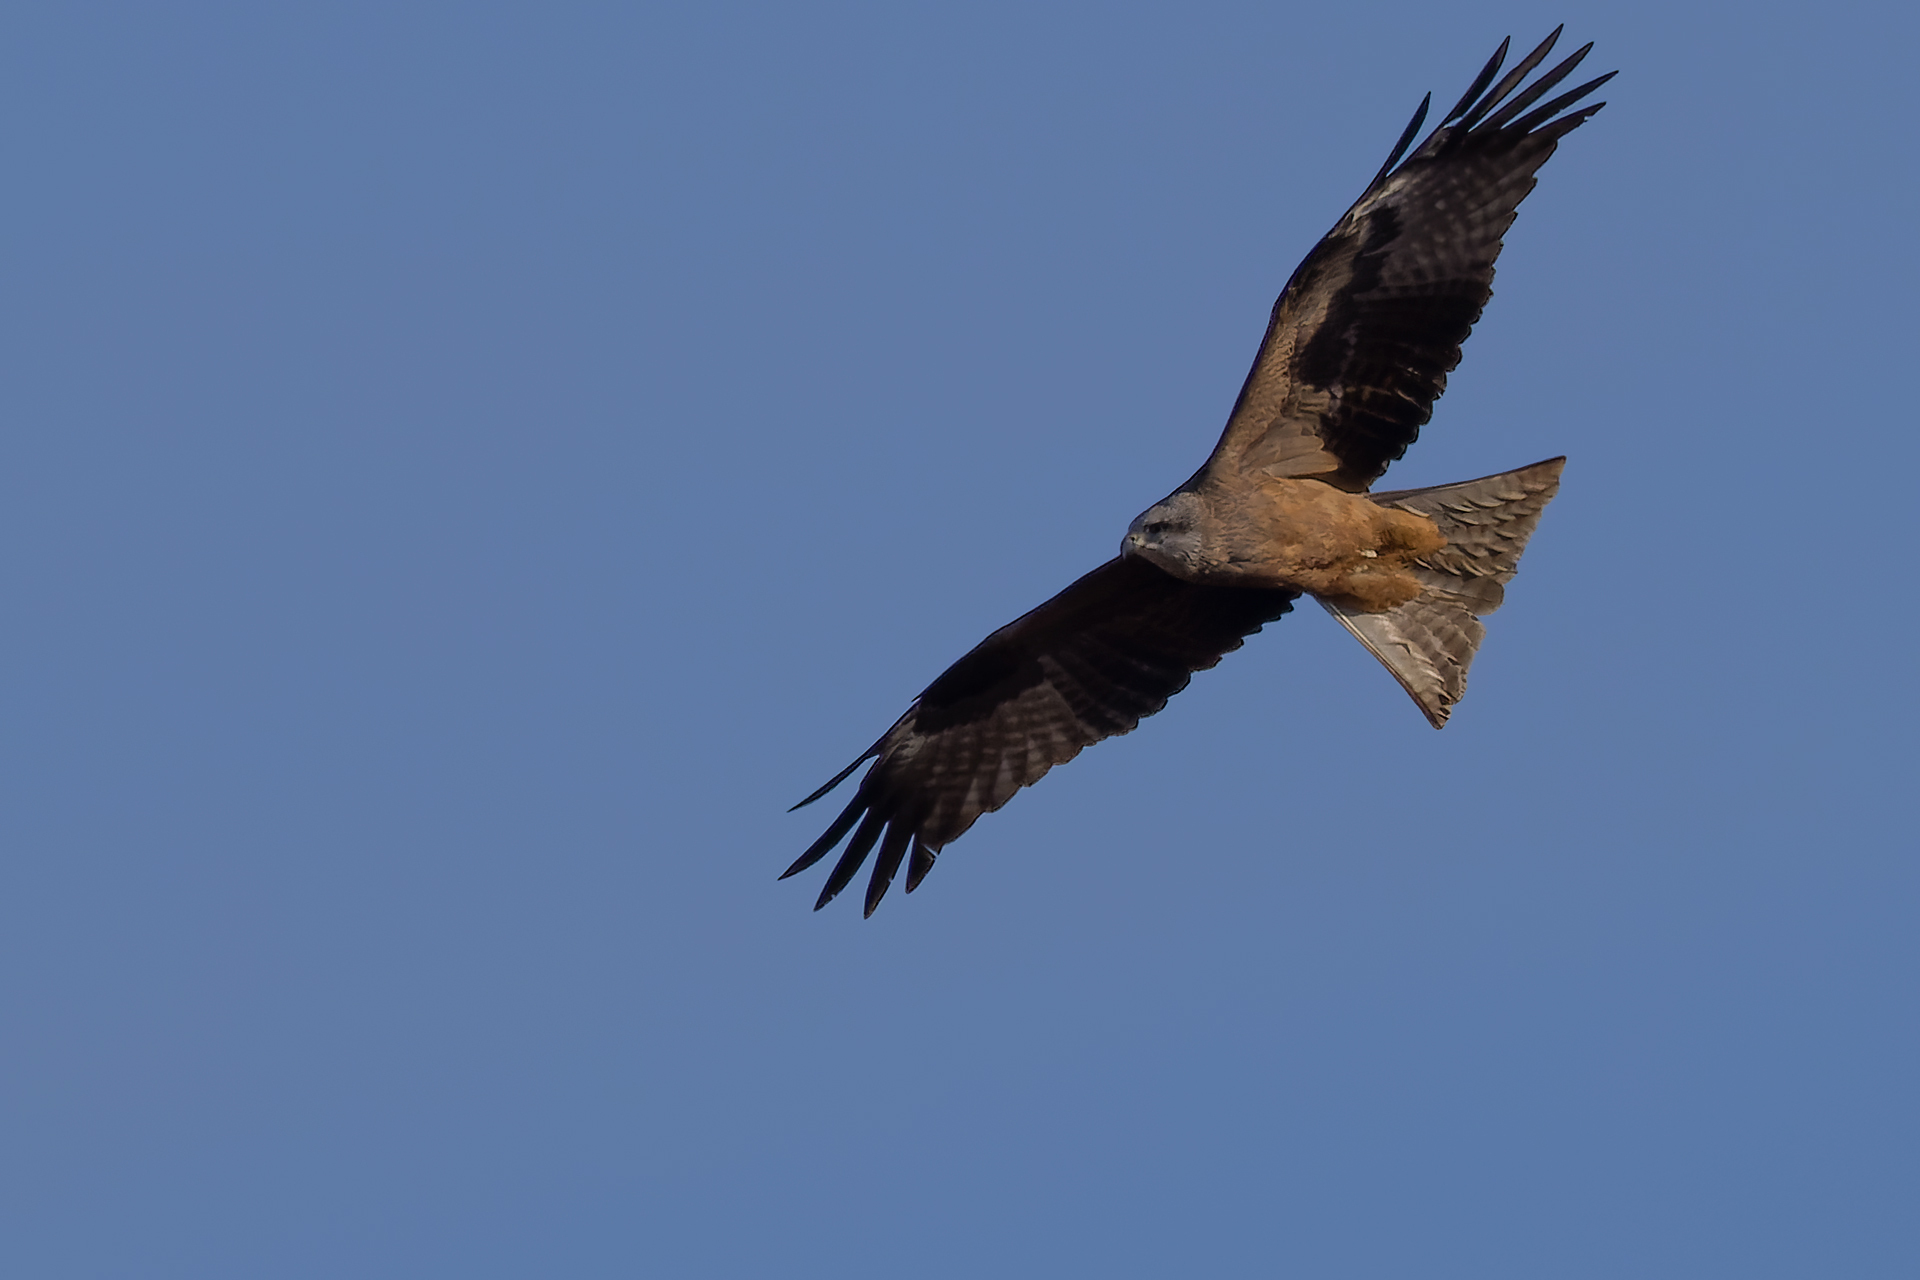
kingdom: Animalia
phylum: Chordata
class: Aves
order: Accipitriformes
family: Accipitridae
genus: Milvus
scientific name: Milvus migrans
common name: Black kite
